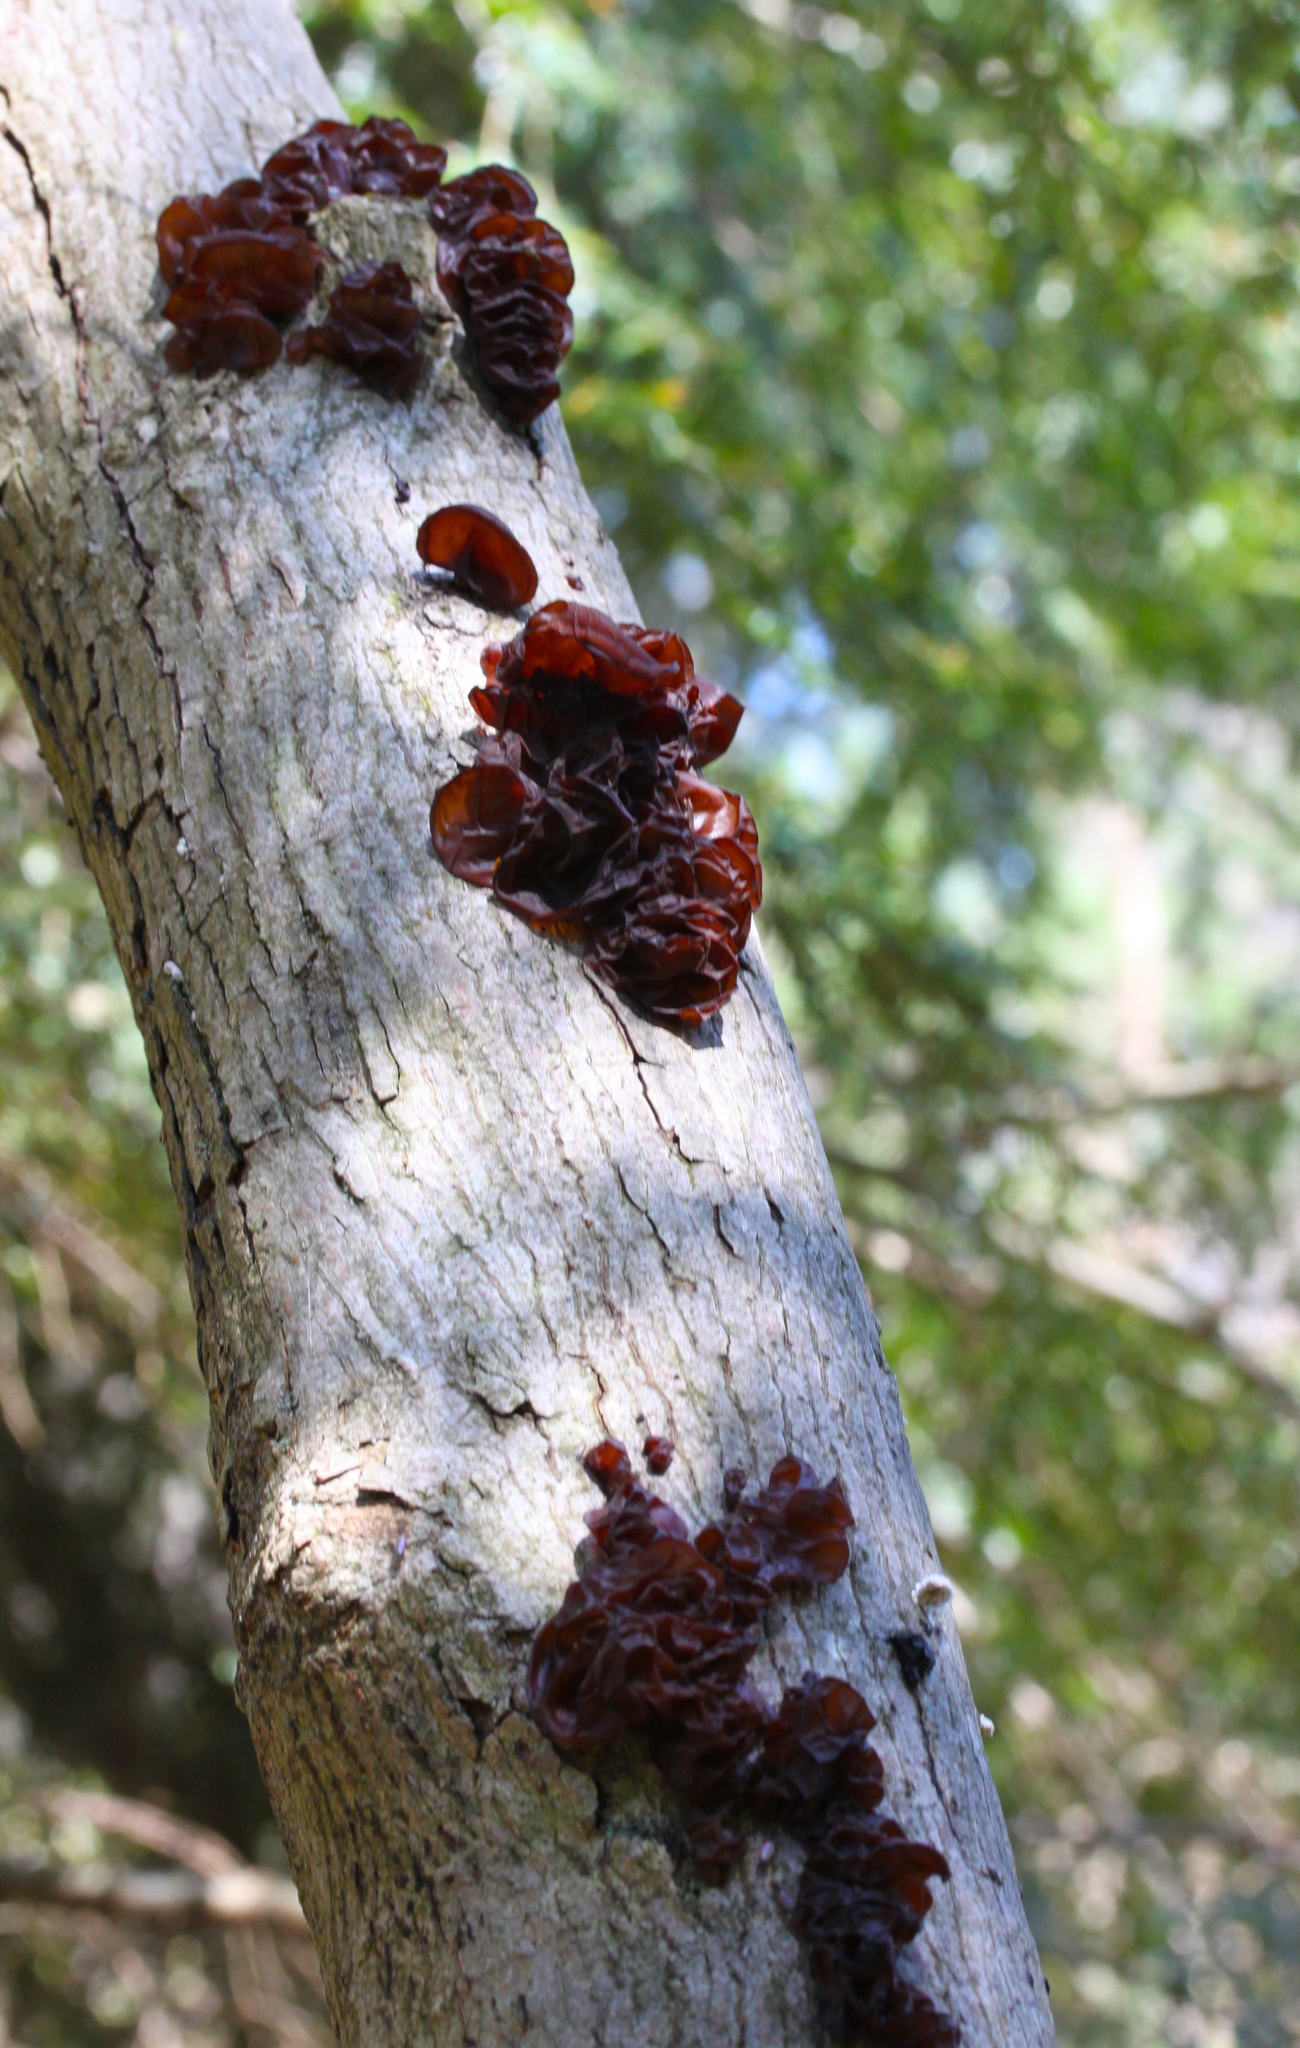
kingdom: Fungi
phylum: Basidiomycota
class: Agaricomycetes
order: Auriculariales
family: Auriculariaceae
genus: Exidia
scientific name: Exidia
